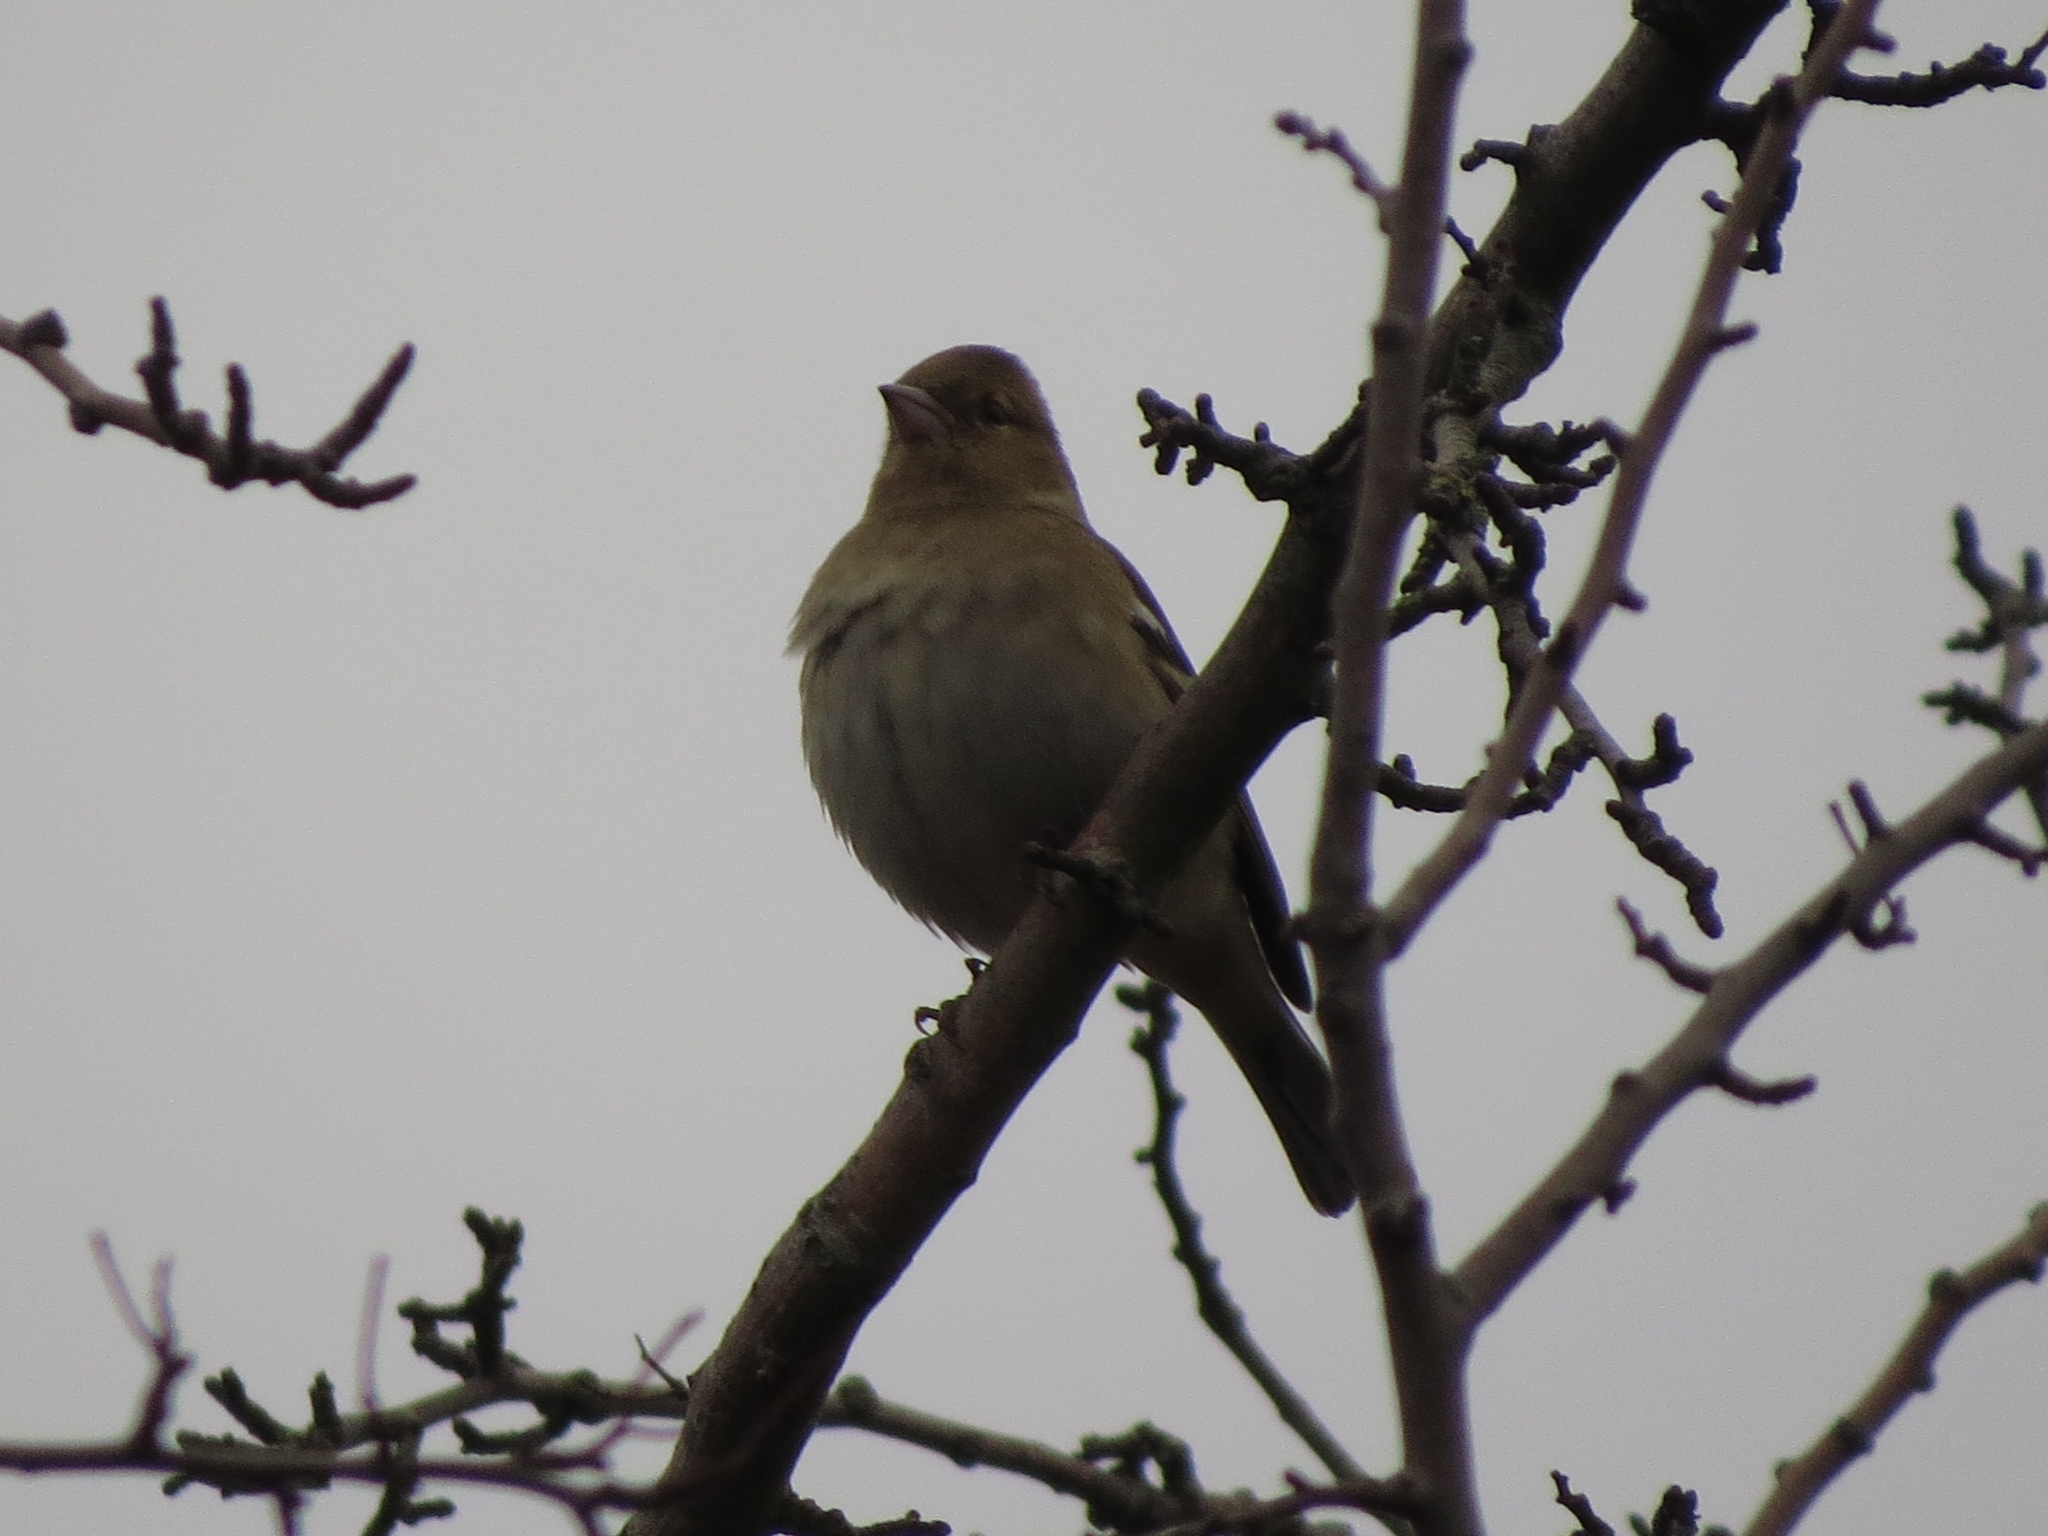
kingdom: Animalia
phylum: Chordata
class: Aves
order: Passeriformes
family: Fringillidae
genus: Fringilla
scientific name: Fringilla coelebs
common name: Common chaffinch
